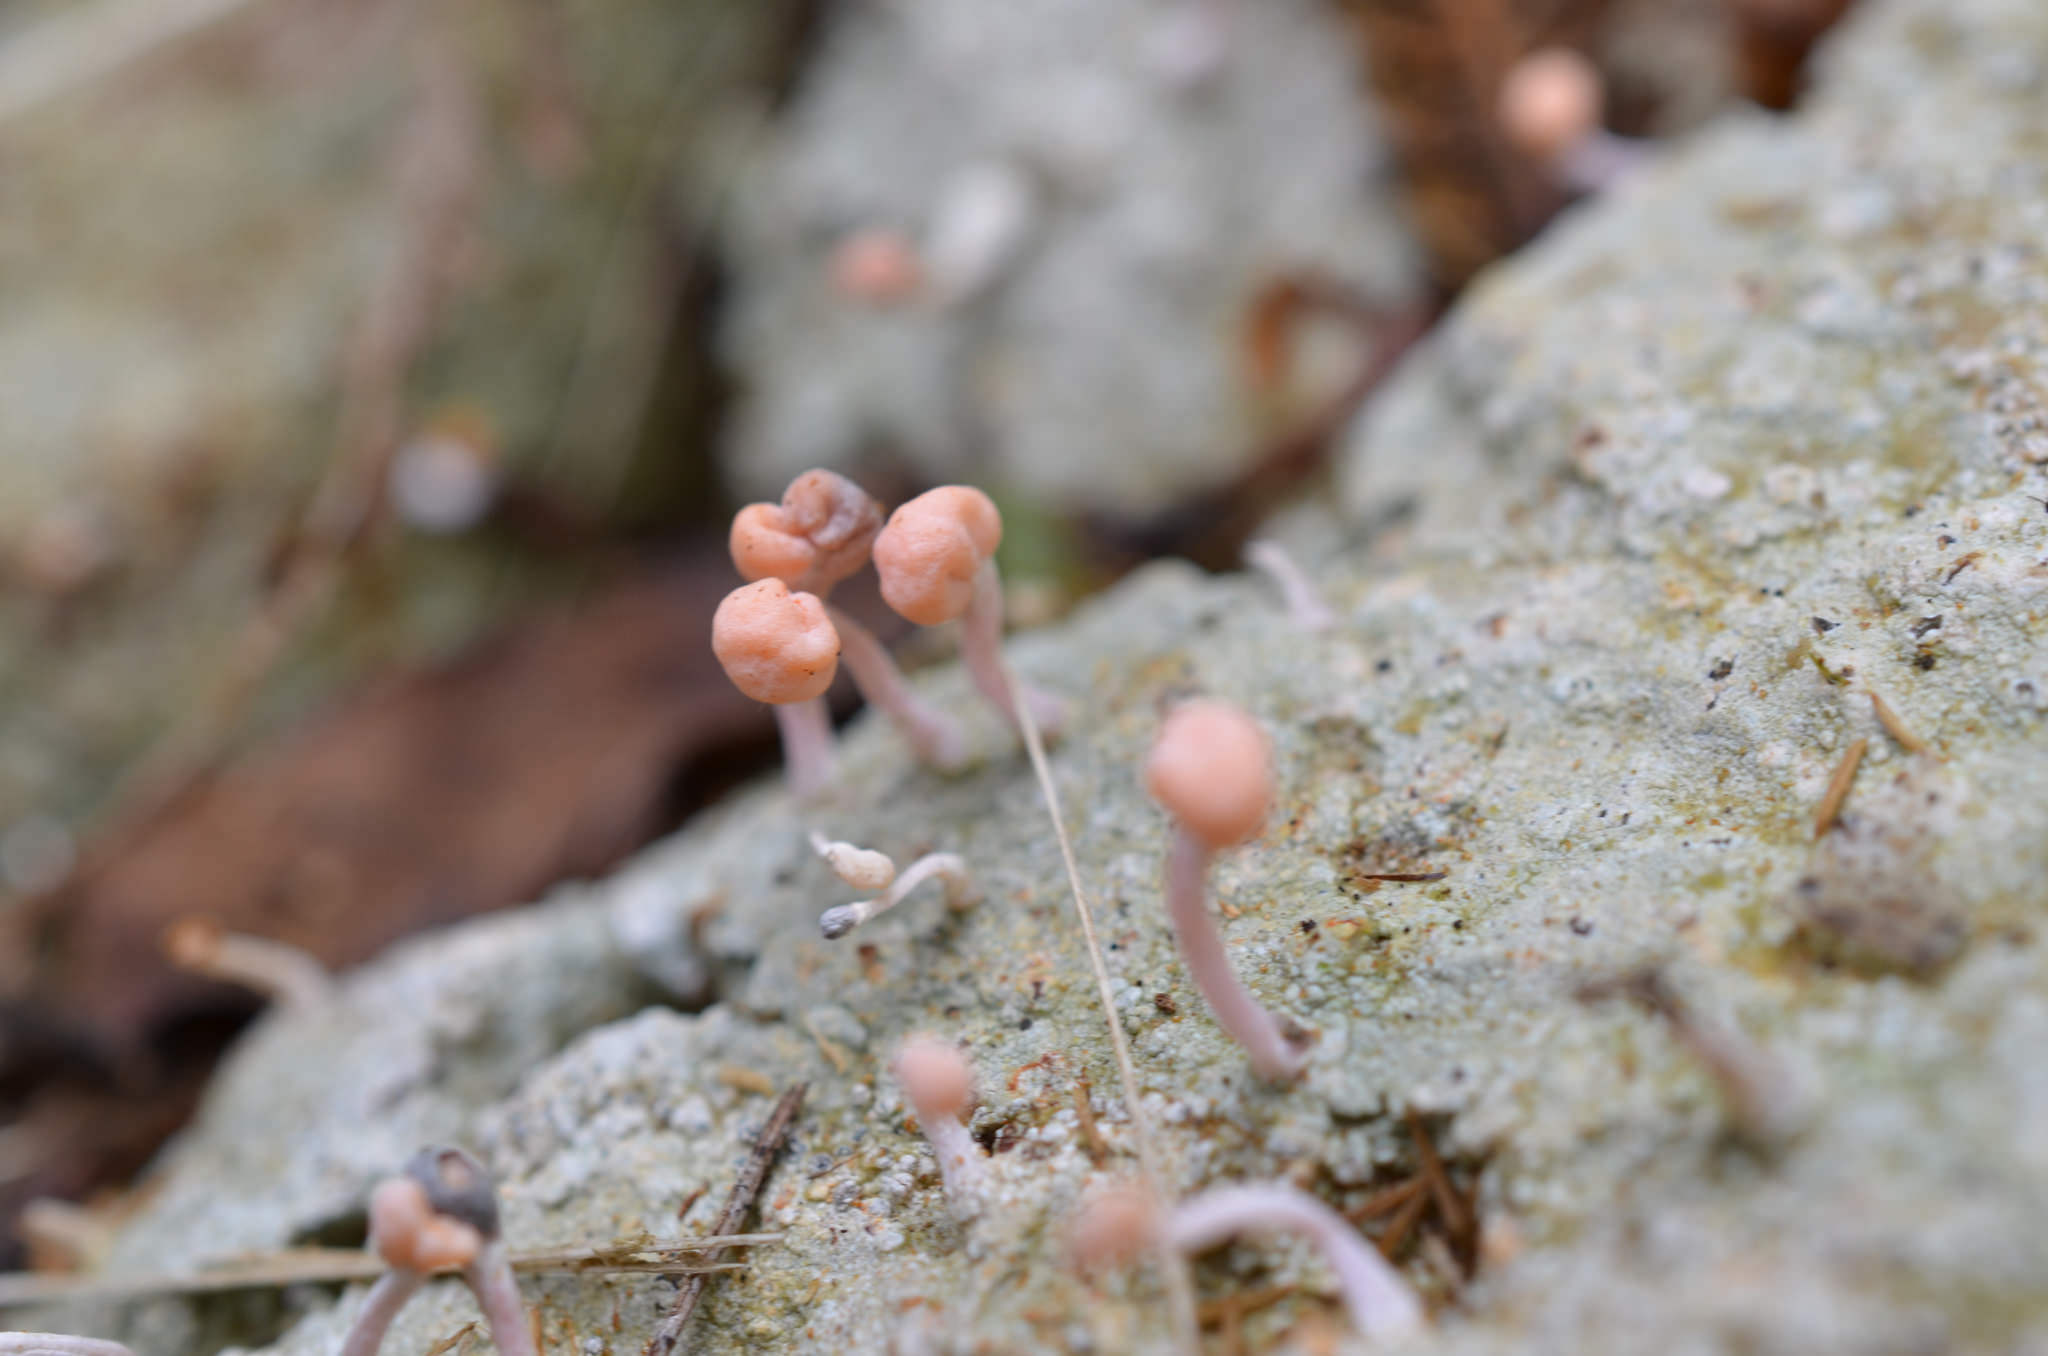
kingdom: Fungi
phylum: Ascomycota
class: Lecanoromycetes
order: Pertusariales
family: Icmadophilaceae
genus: Dibaeis
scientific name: Dibaeis arcuata
